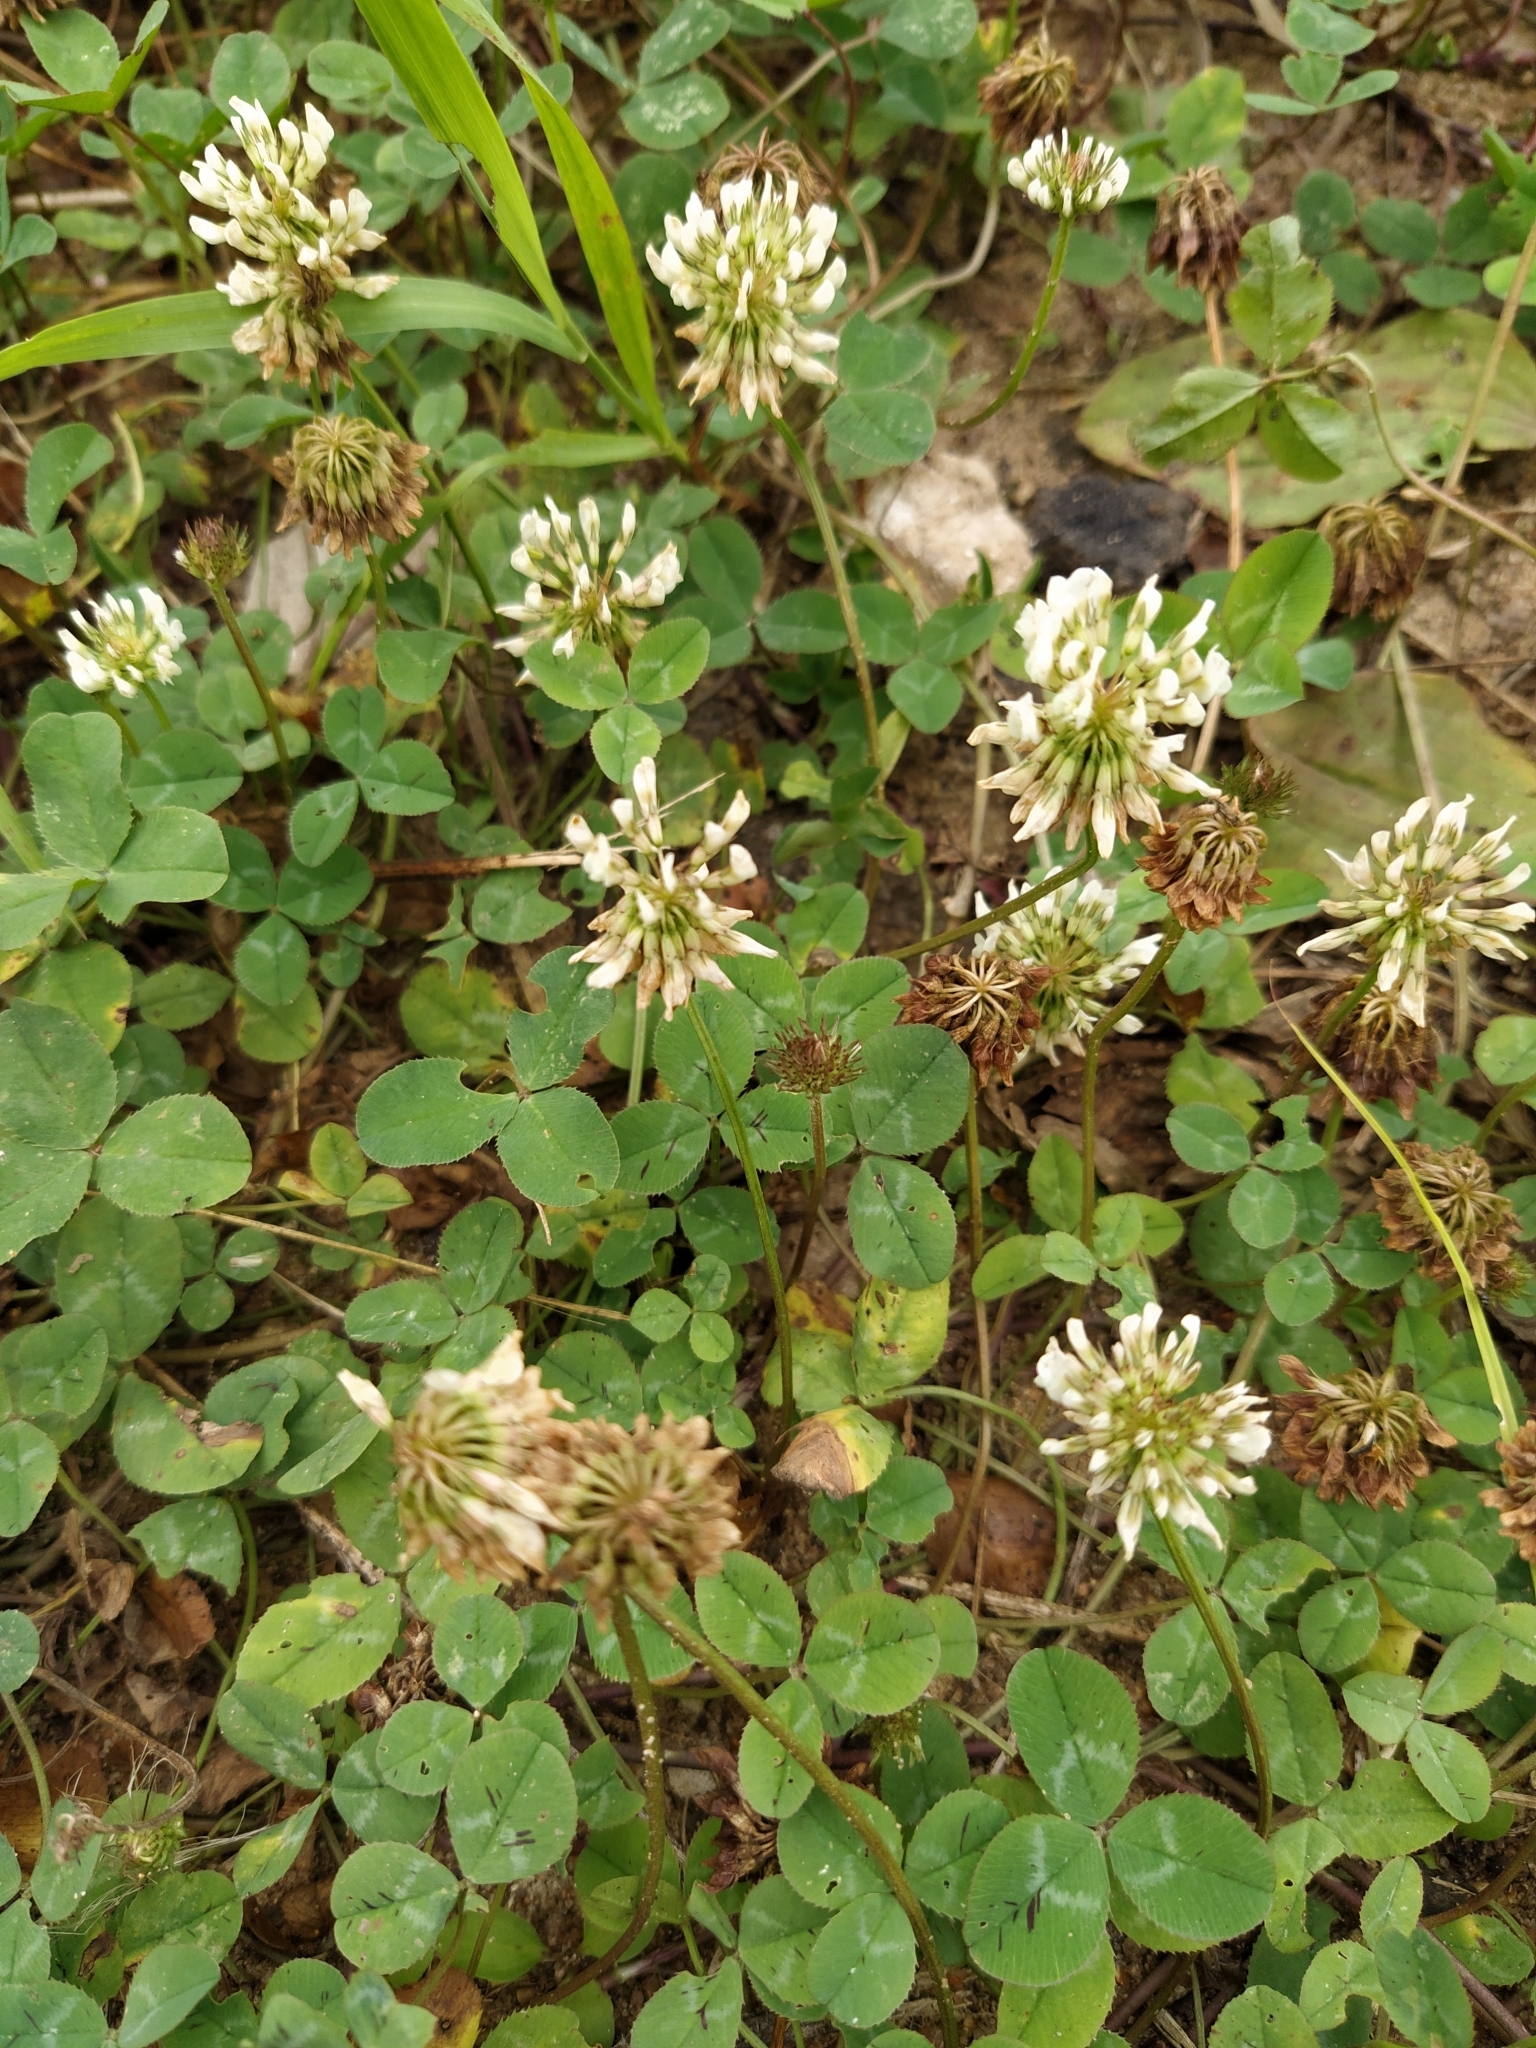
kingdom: Plantae
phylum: Tracheophyta
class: Magnoliopsida
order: Fabales
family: Fabaceae
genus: Trifolium
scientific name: Trifolium repens
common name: White clover
